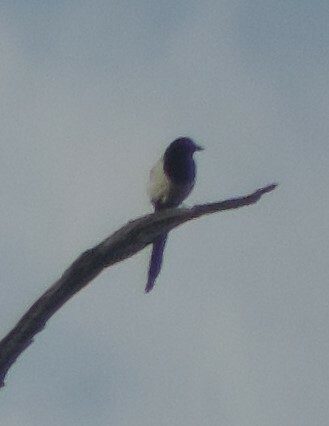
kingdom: Animalia
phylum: Chordata
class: Aves
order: Passeriformes
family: Corvidae
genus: Pica
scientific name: Pica hudsonia
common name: Black-billed magpie
